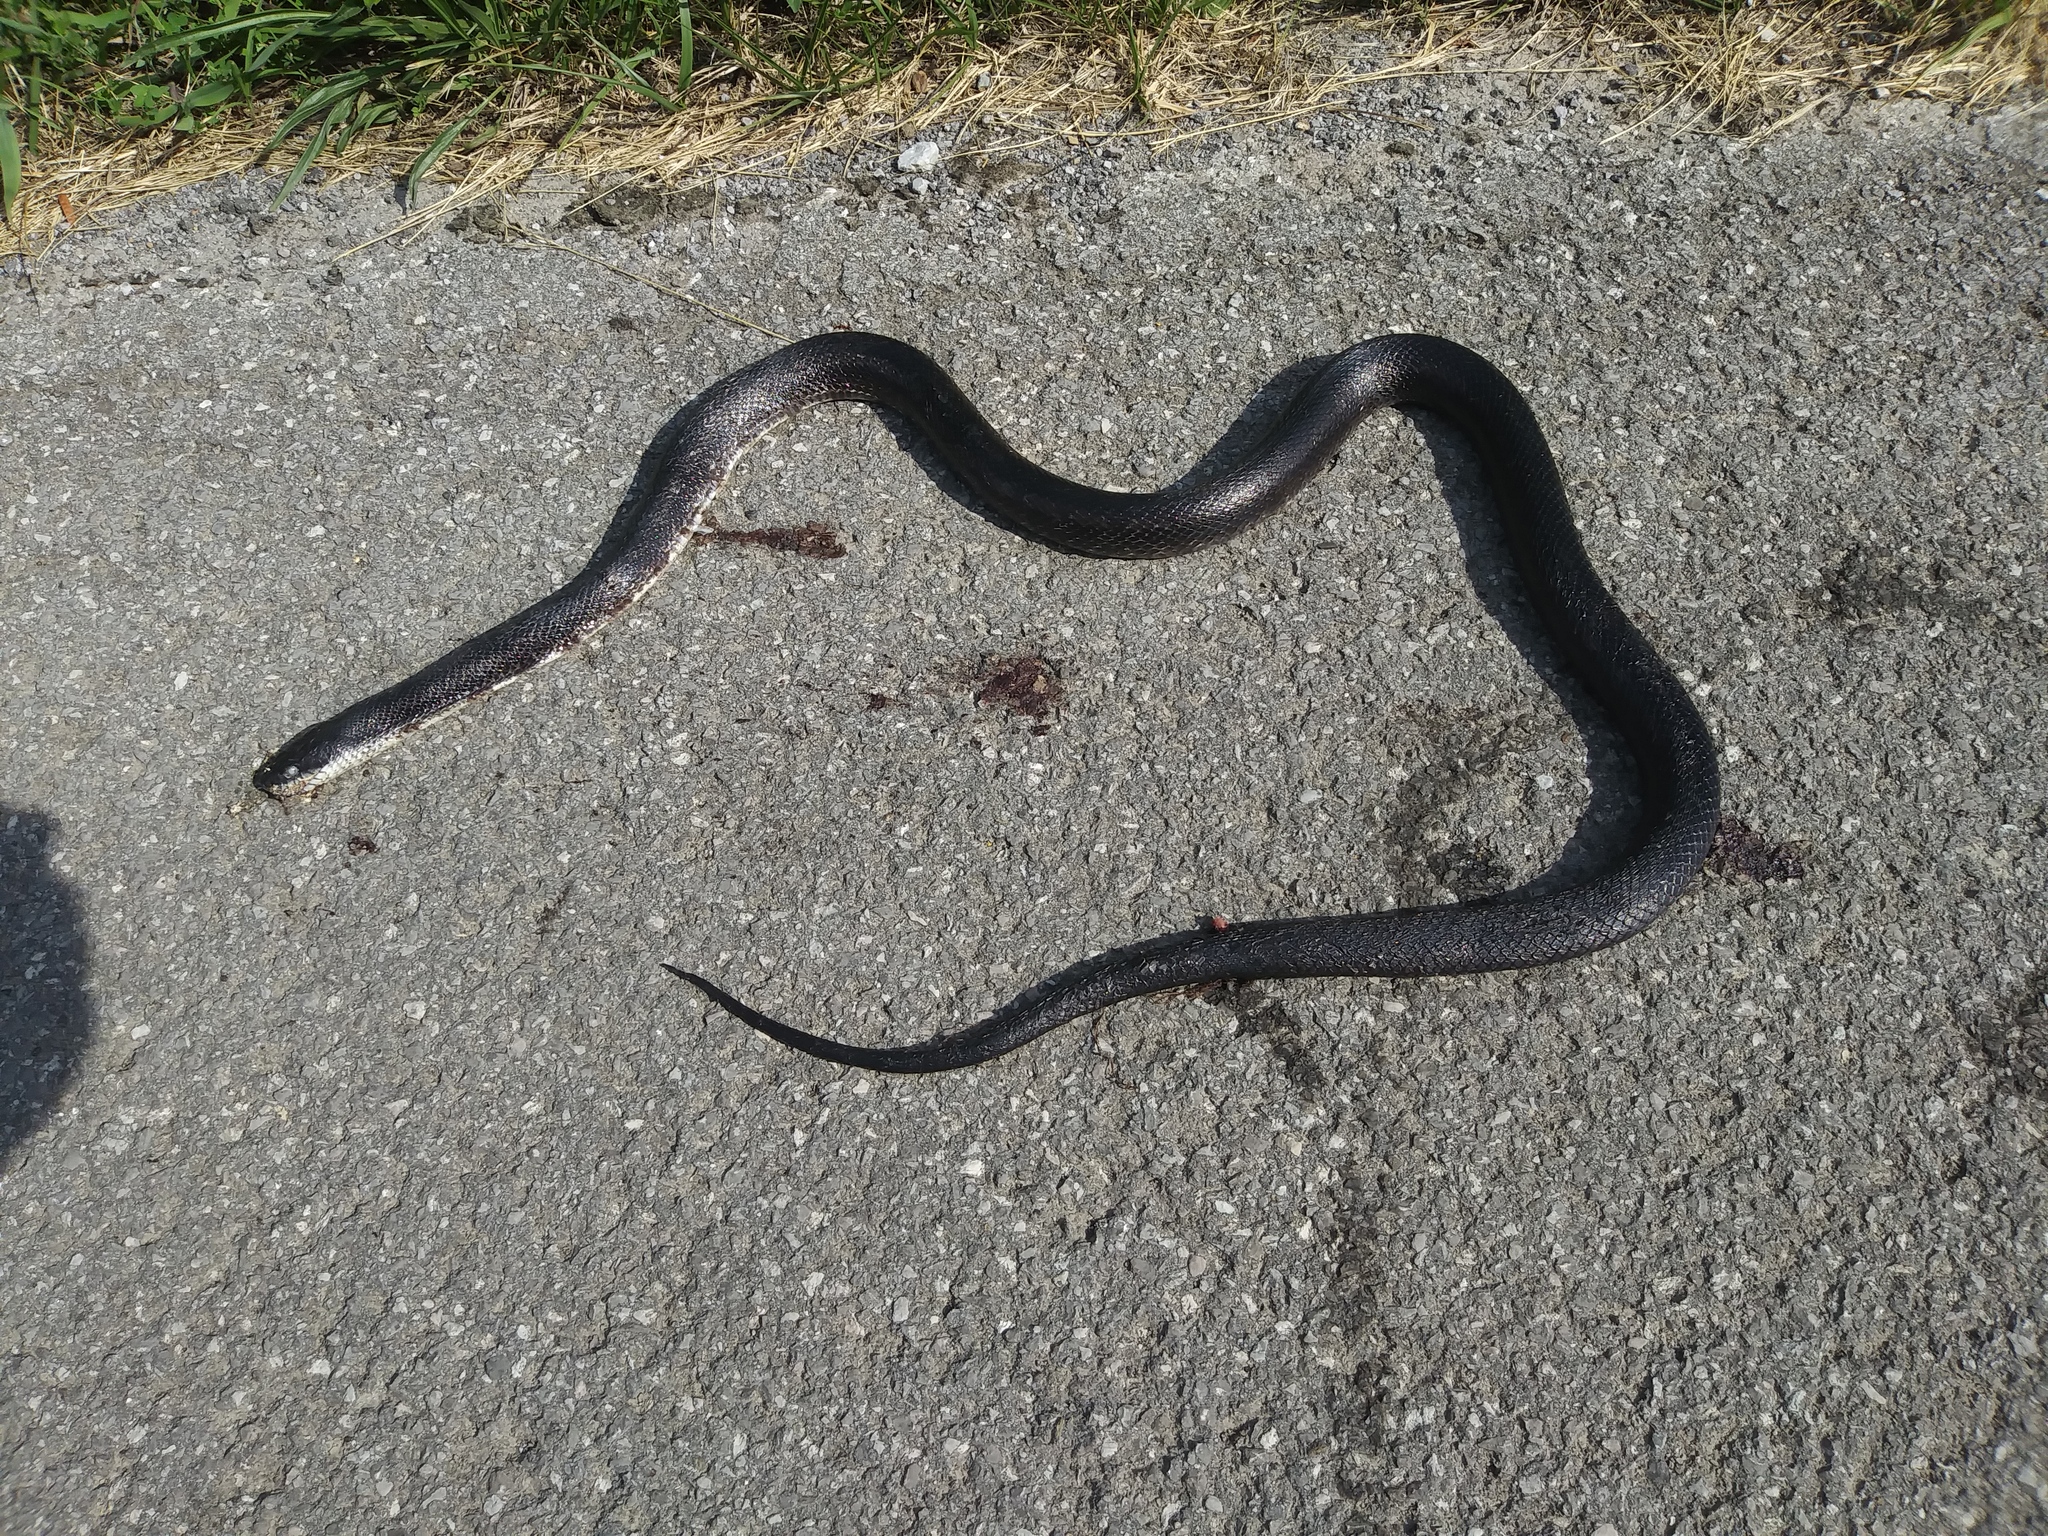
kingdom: Animalia
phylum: Chordata
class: Squamata
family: Colubridae
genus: Pantherophis
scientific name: Pantherophis spiloides
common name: Gray rat snake
